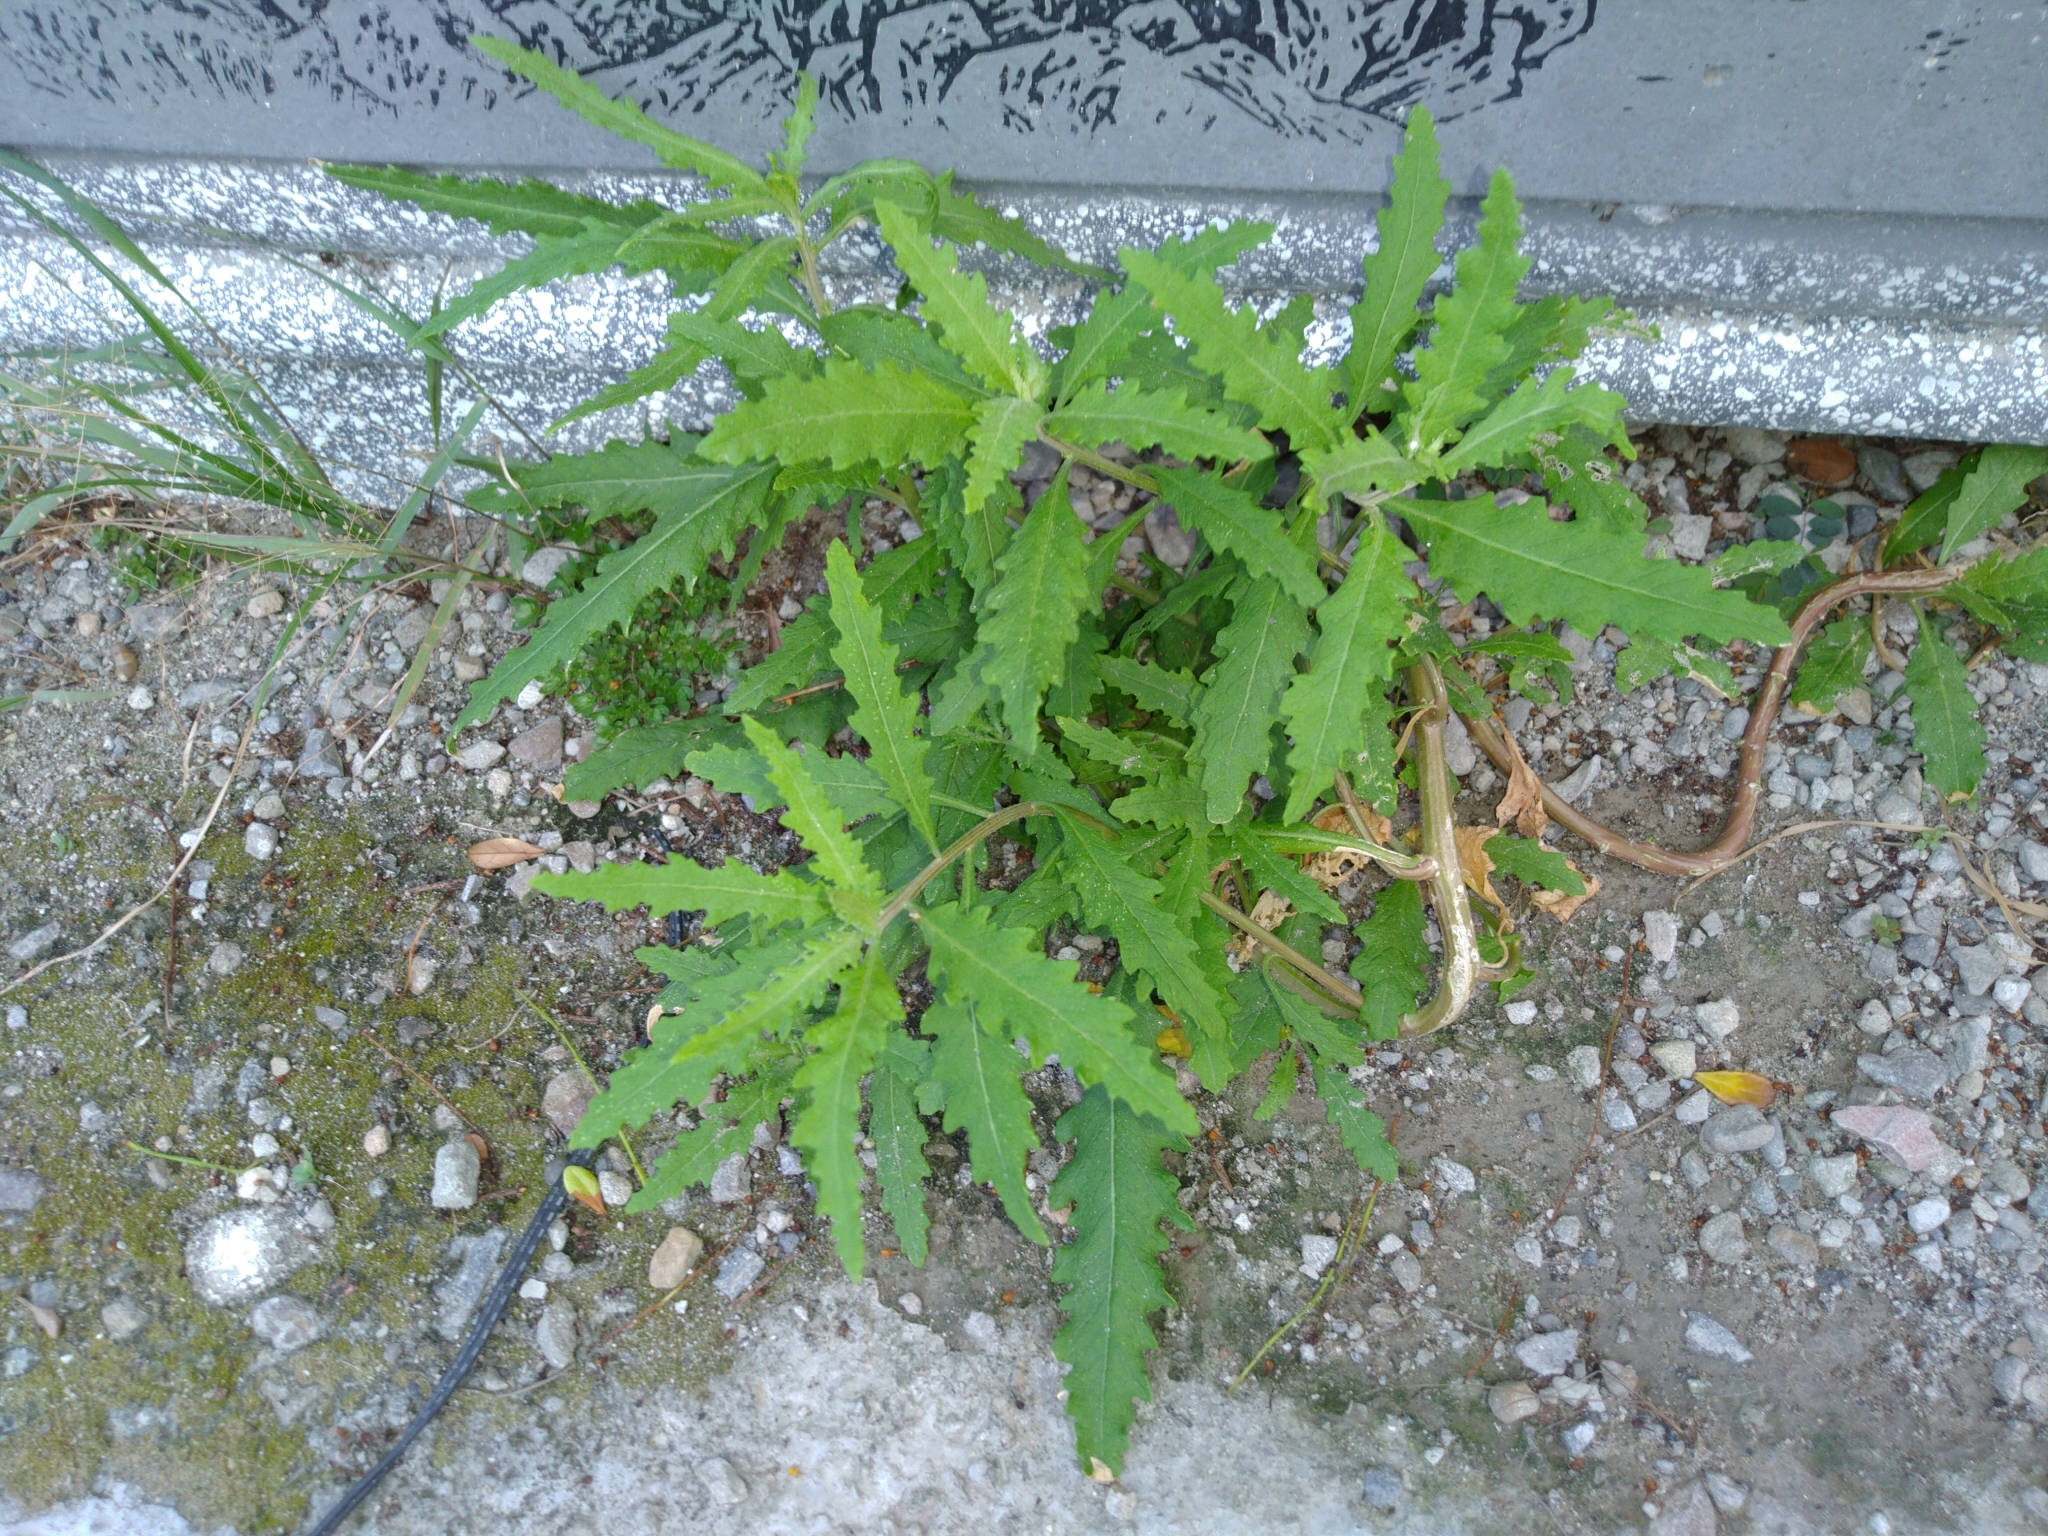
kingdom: Plantae
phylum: Tracheophyta
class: Magnoliopsida
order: Caryophyllales
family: Amaranthaceae
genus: Dysphania
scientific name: Dysphania ambrosioides
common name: Wormseed
